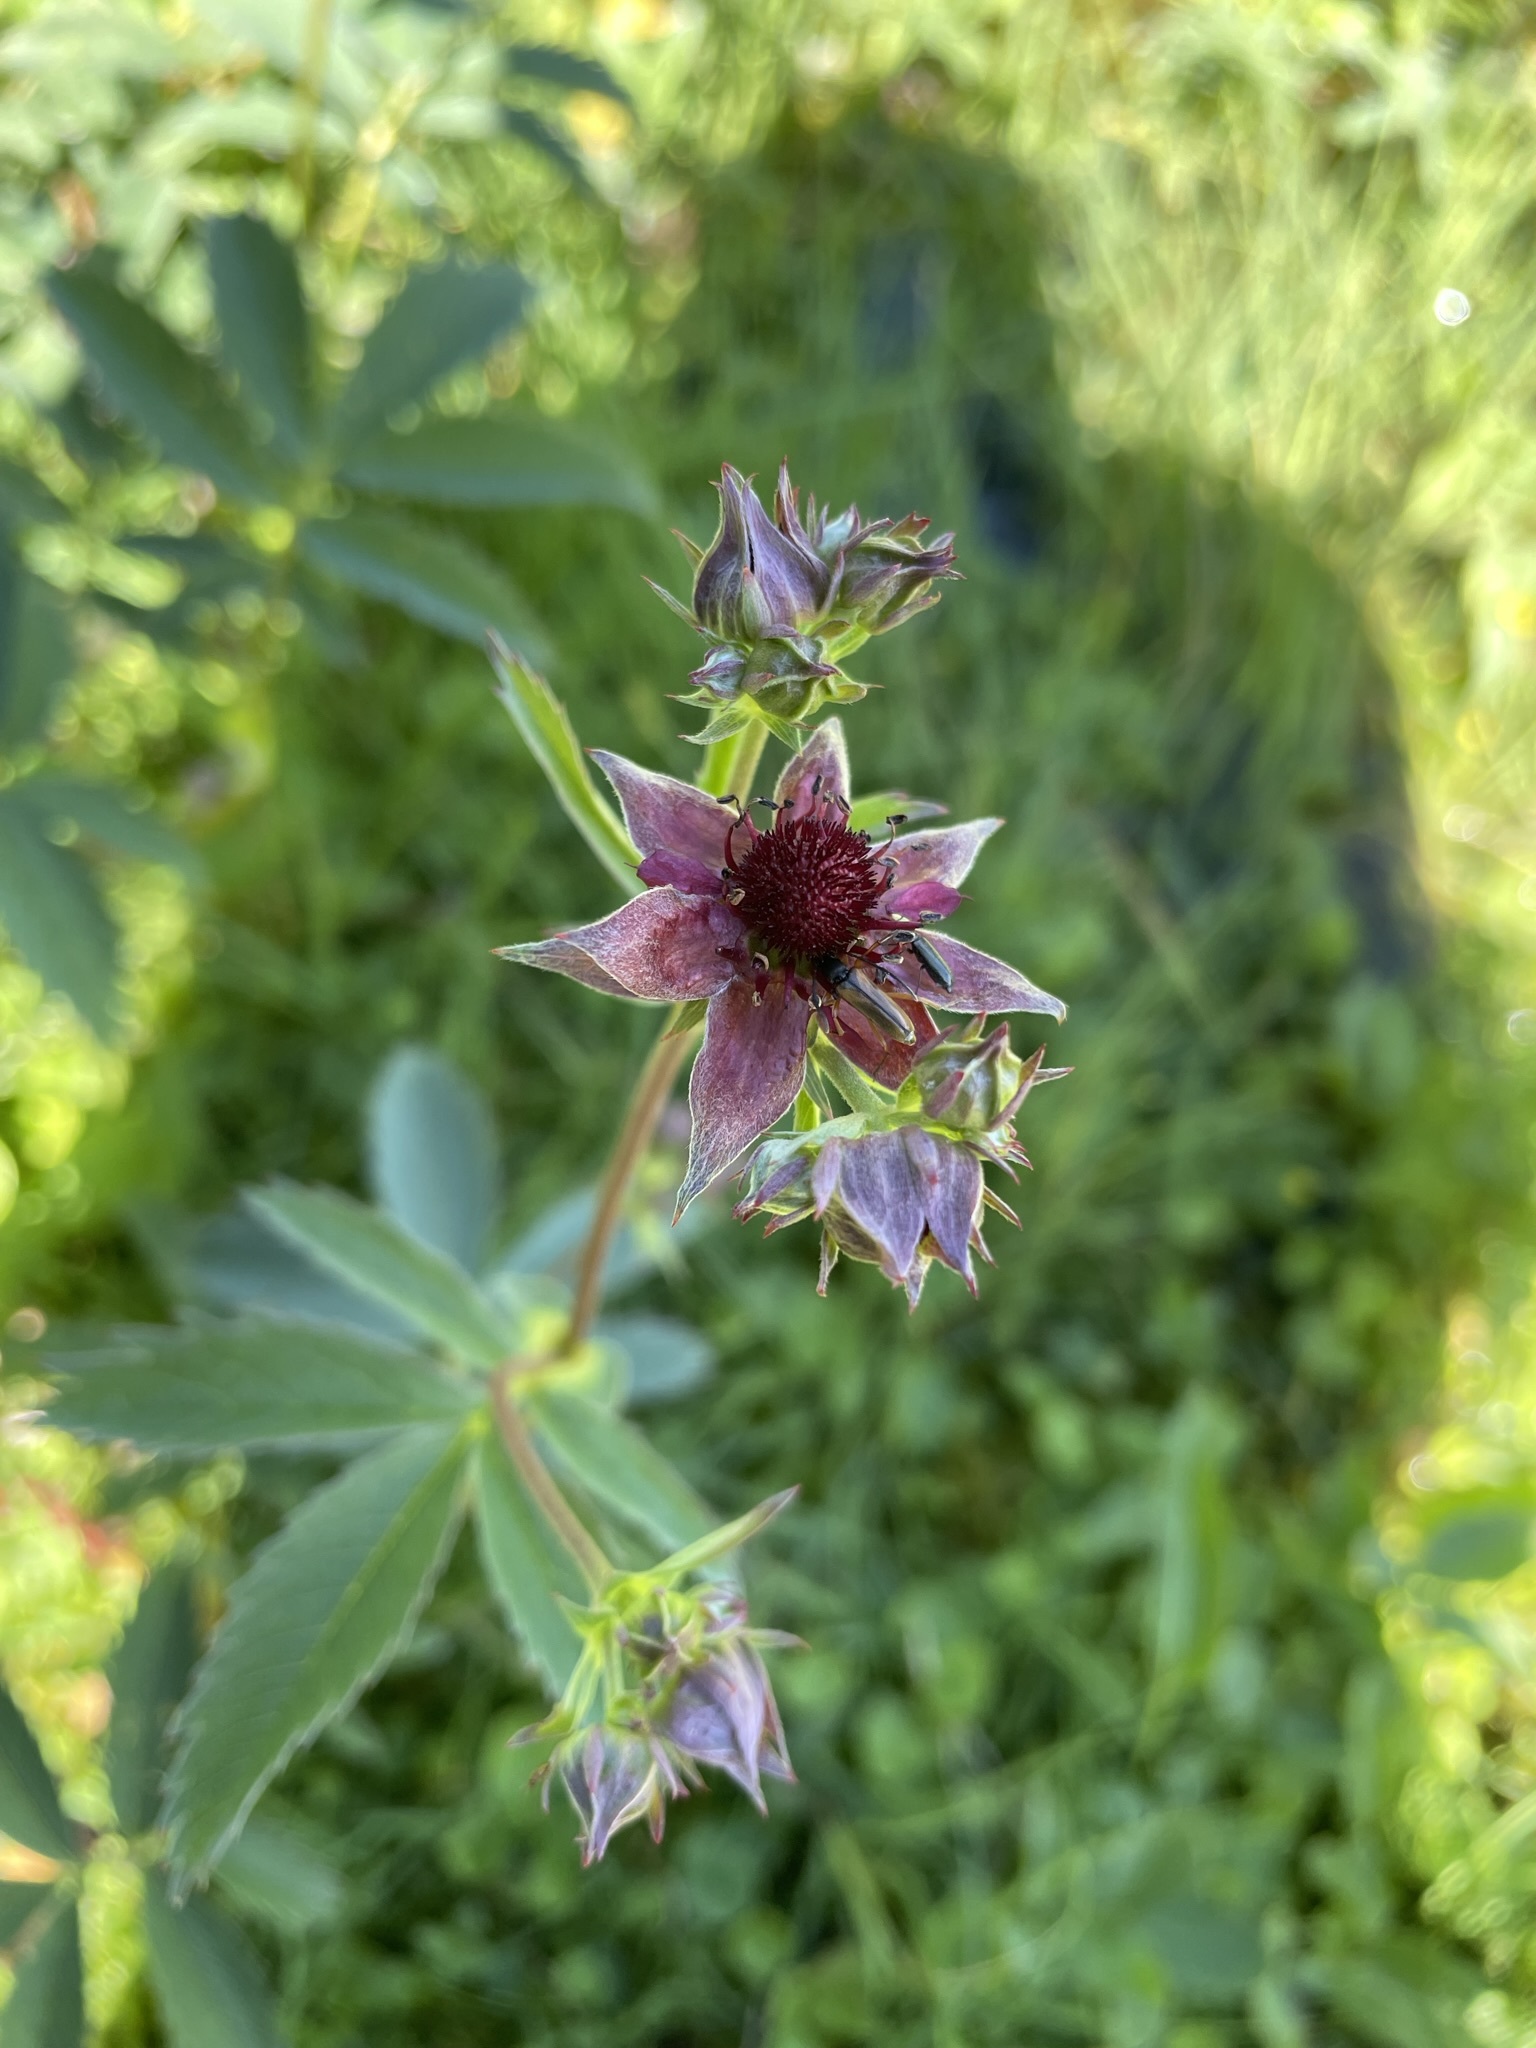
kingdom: Plantae
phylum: Tracheophyta
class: Magnoliopsida
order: Rosales
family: Rosaceae
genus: Comarum
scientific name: Comarum palustre
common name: Marsh cinquefoil
